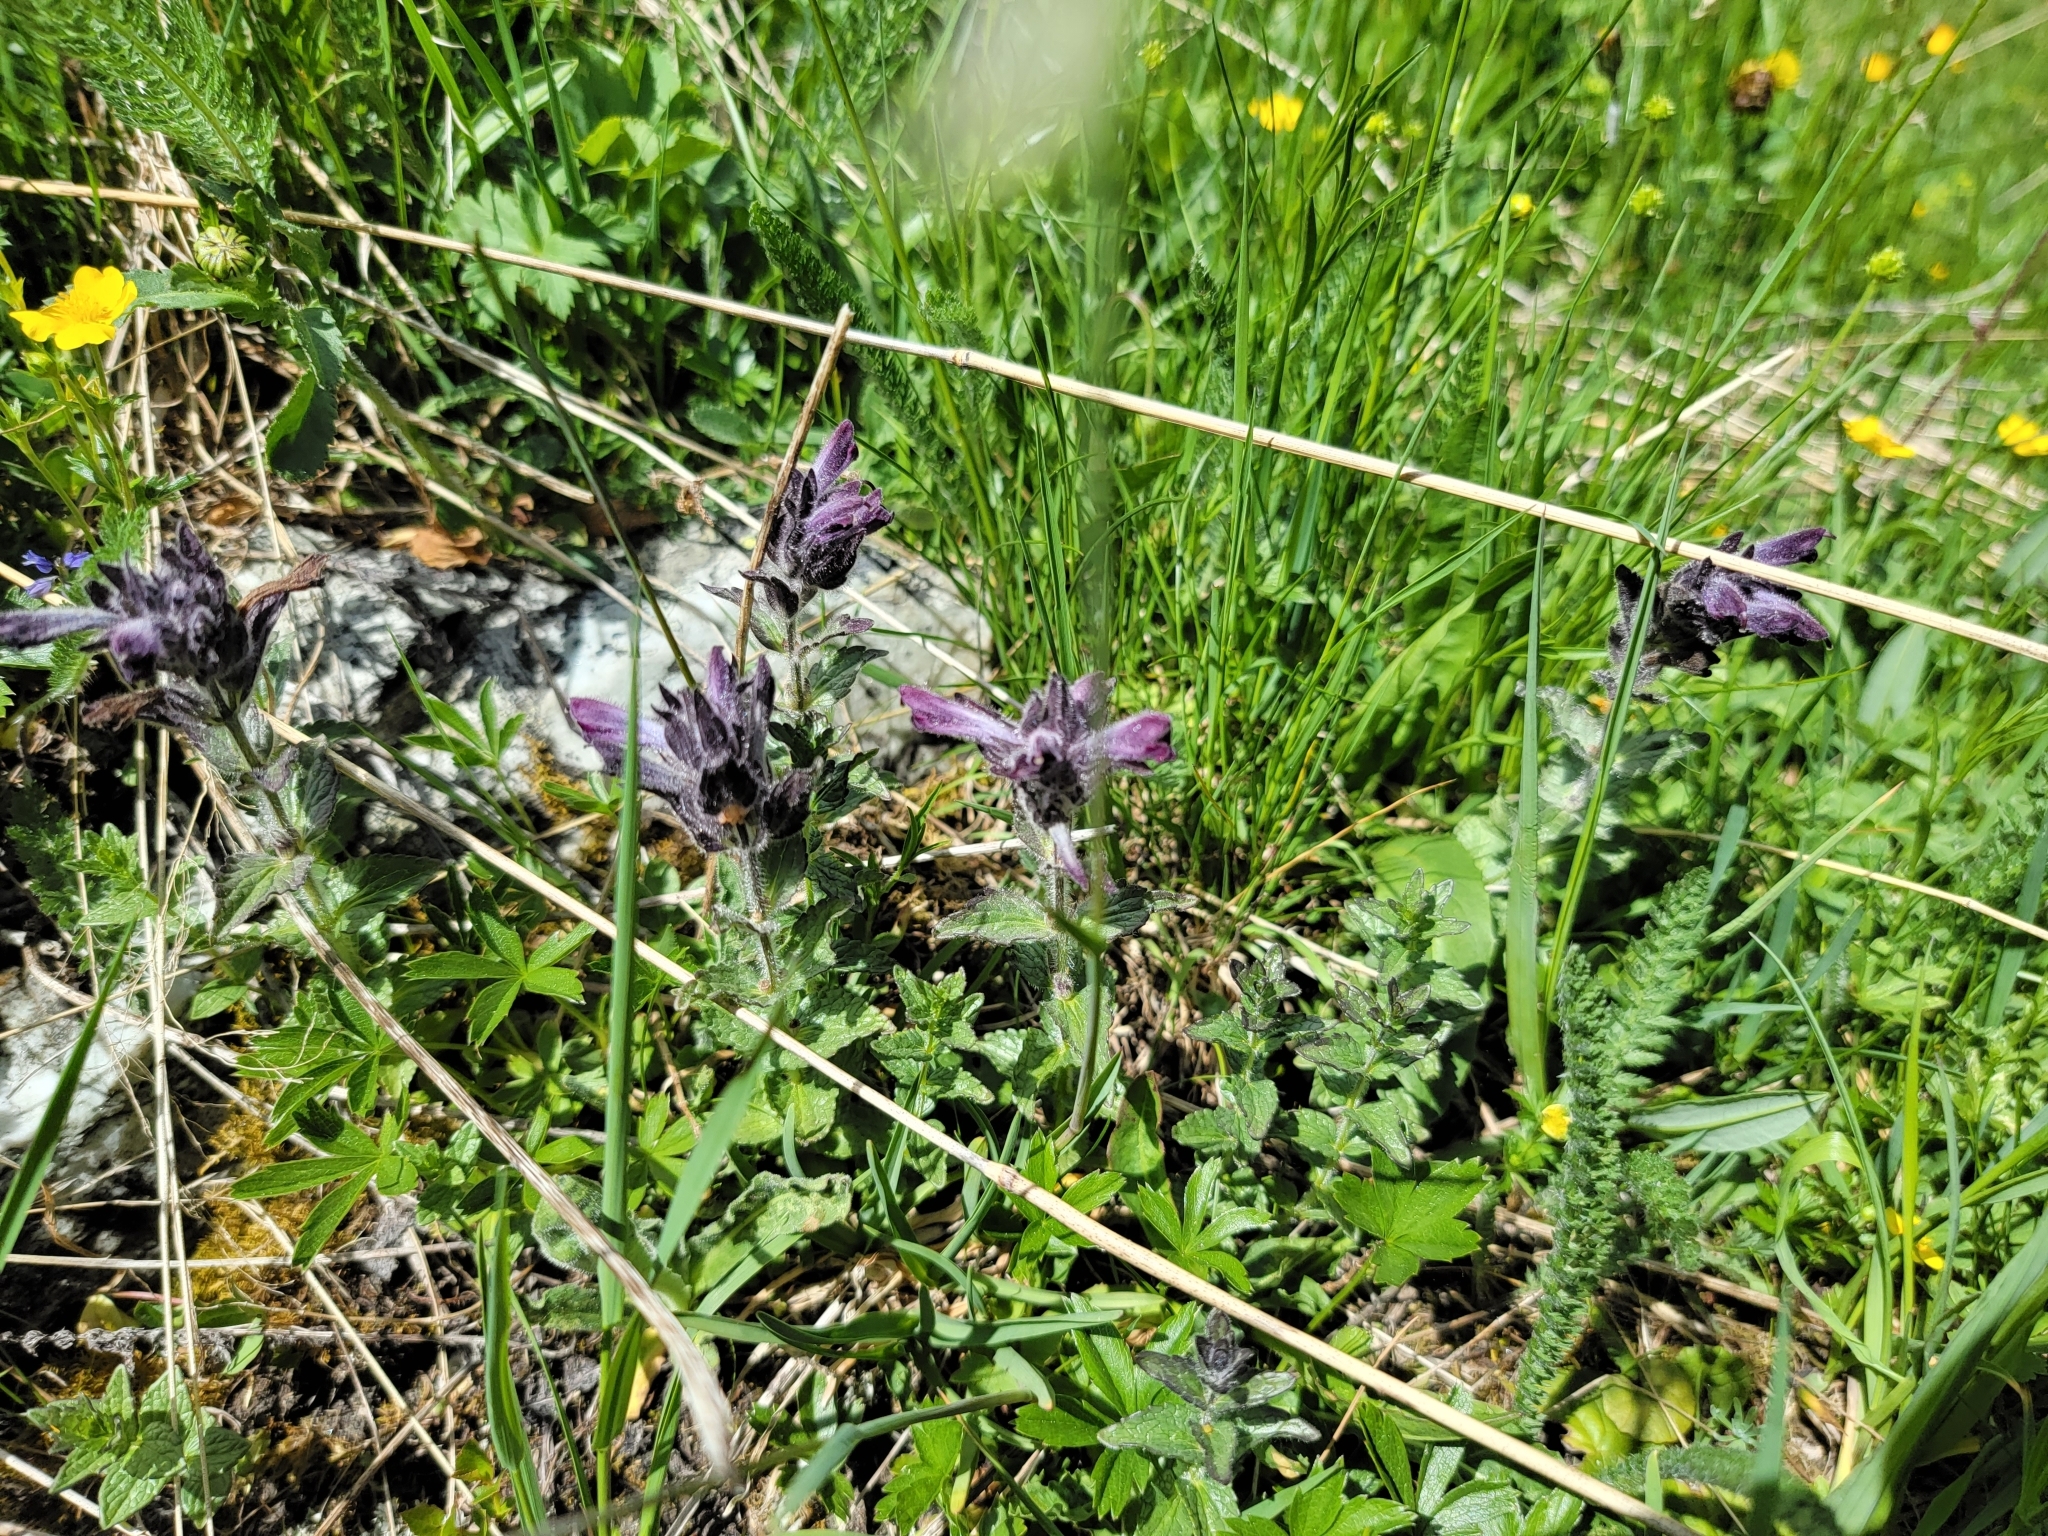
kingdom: Plantae
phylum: Tracheophyta
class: Magnoliopsida
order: Lamiales
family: Orobanchaceae
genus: Bartsia
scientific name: Bartsia alpina
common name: Alpine bartsia
